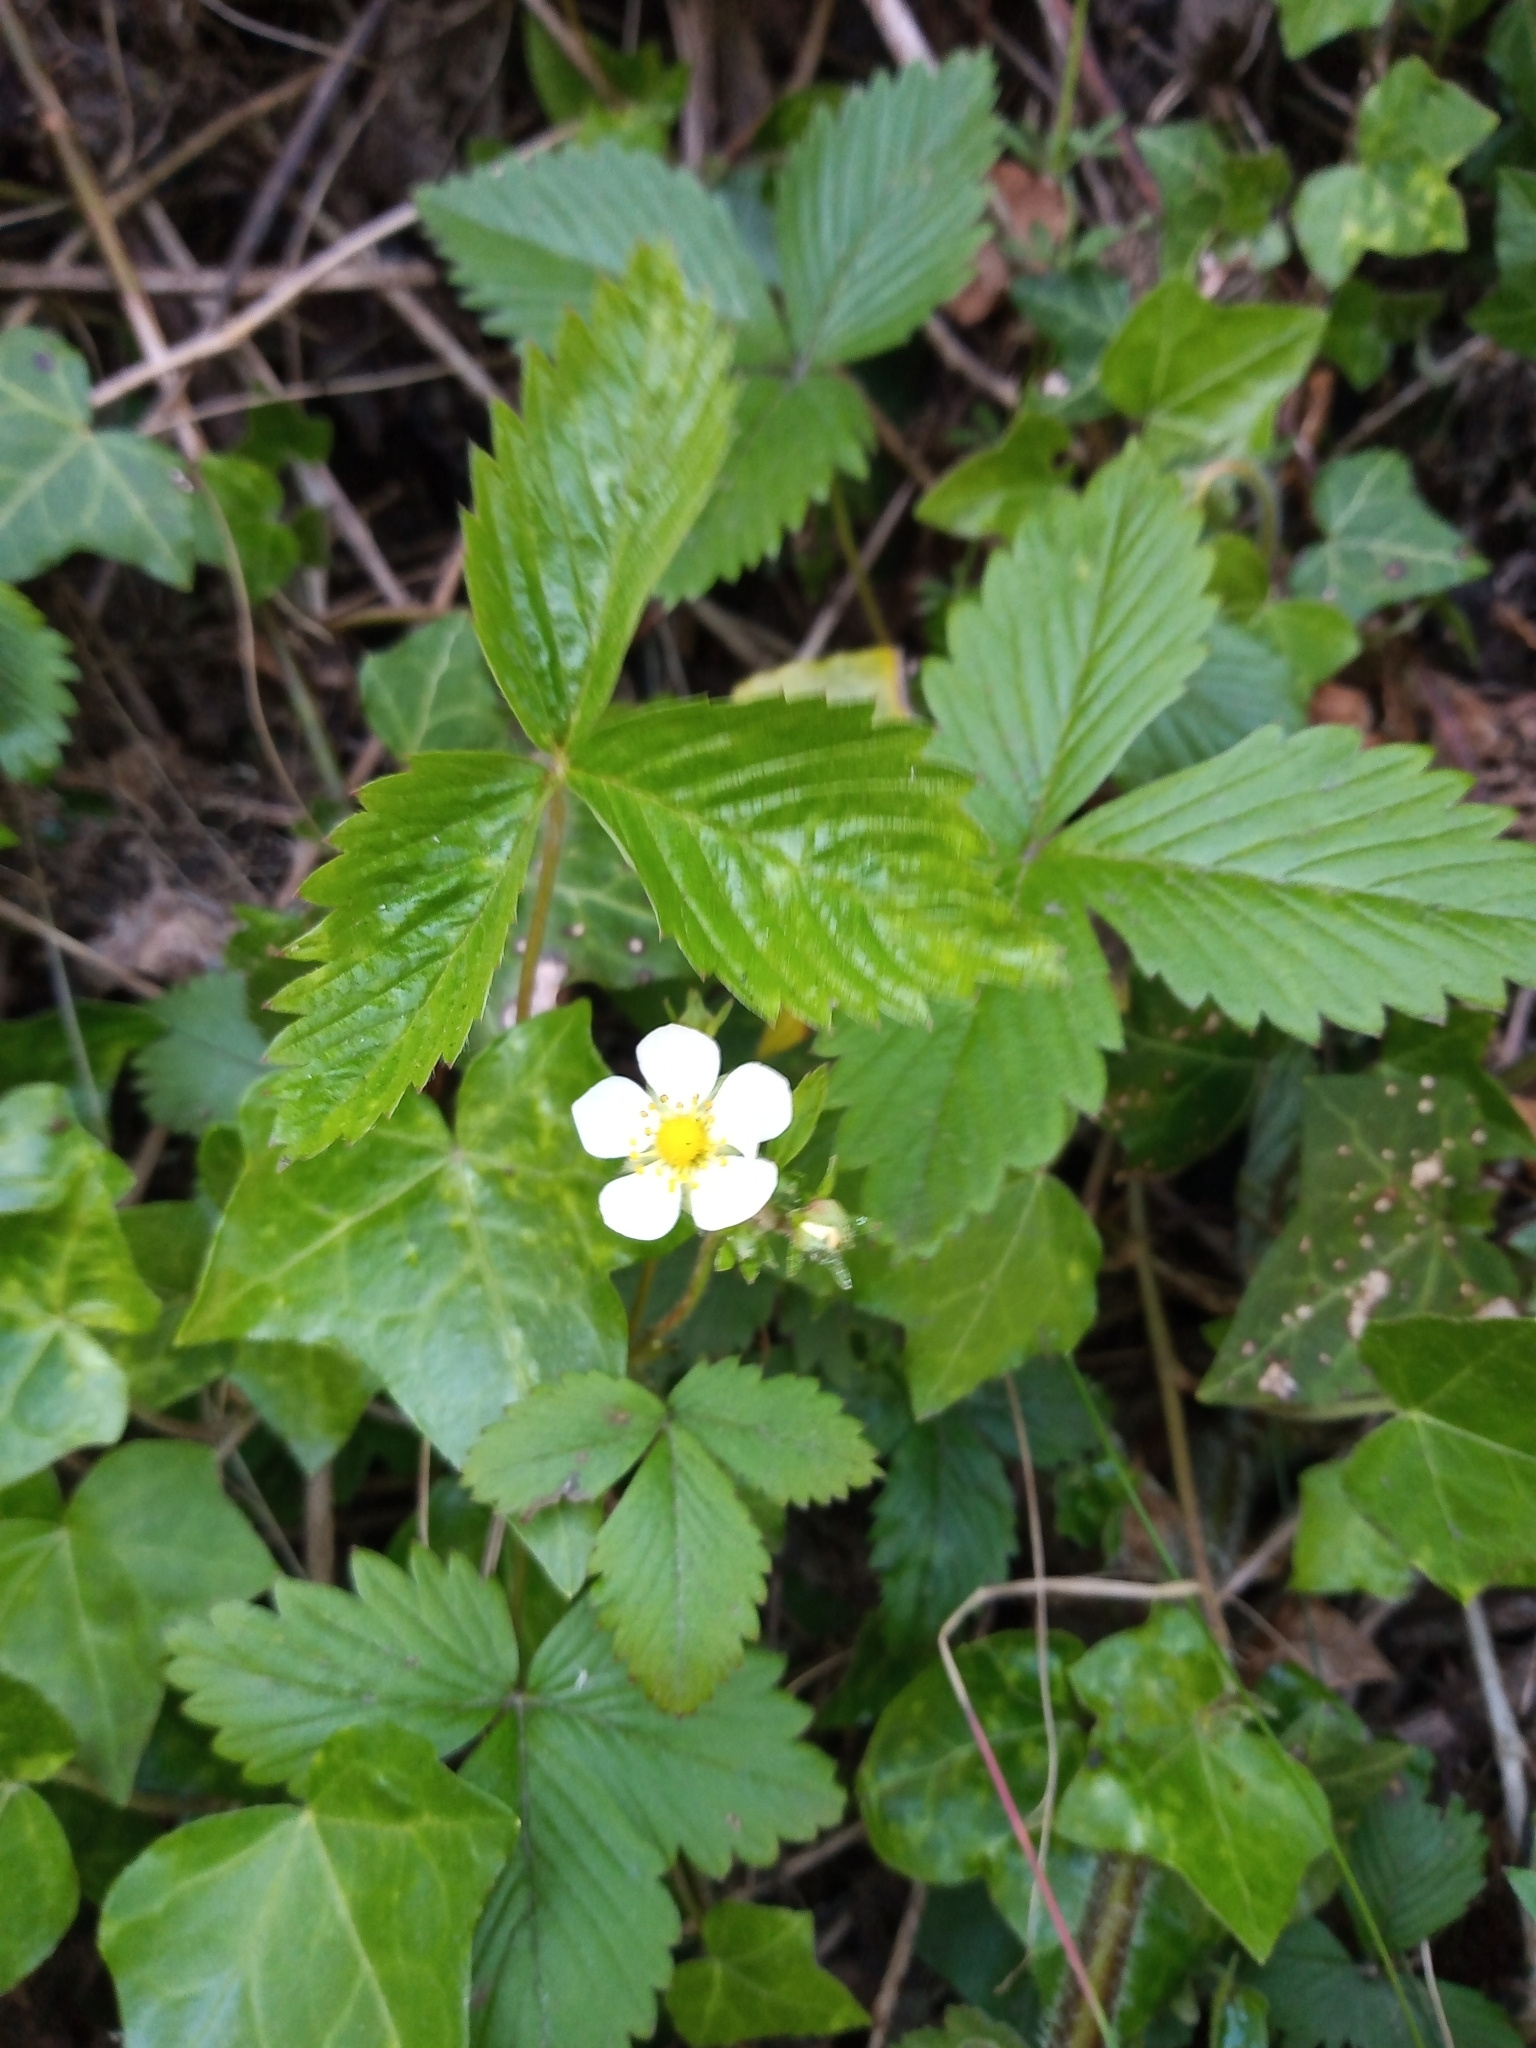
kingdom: Plantae
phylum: Tracheophyta
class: Magnoliopsida
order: Rosales
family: Rosaceae
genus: Fragaria
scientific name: Fragaria vesca
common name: Wild strawberry
